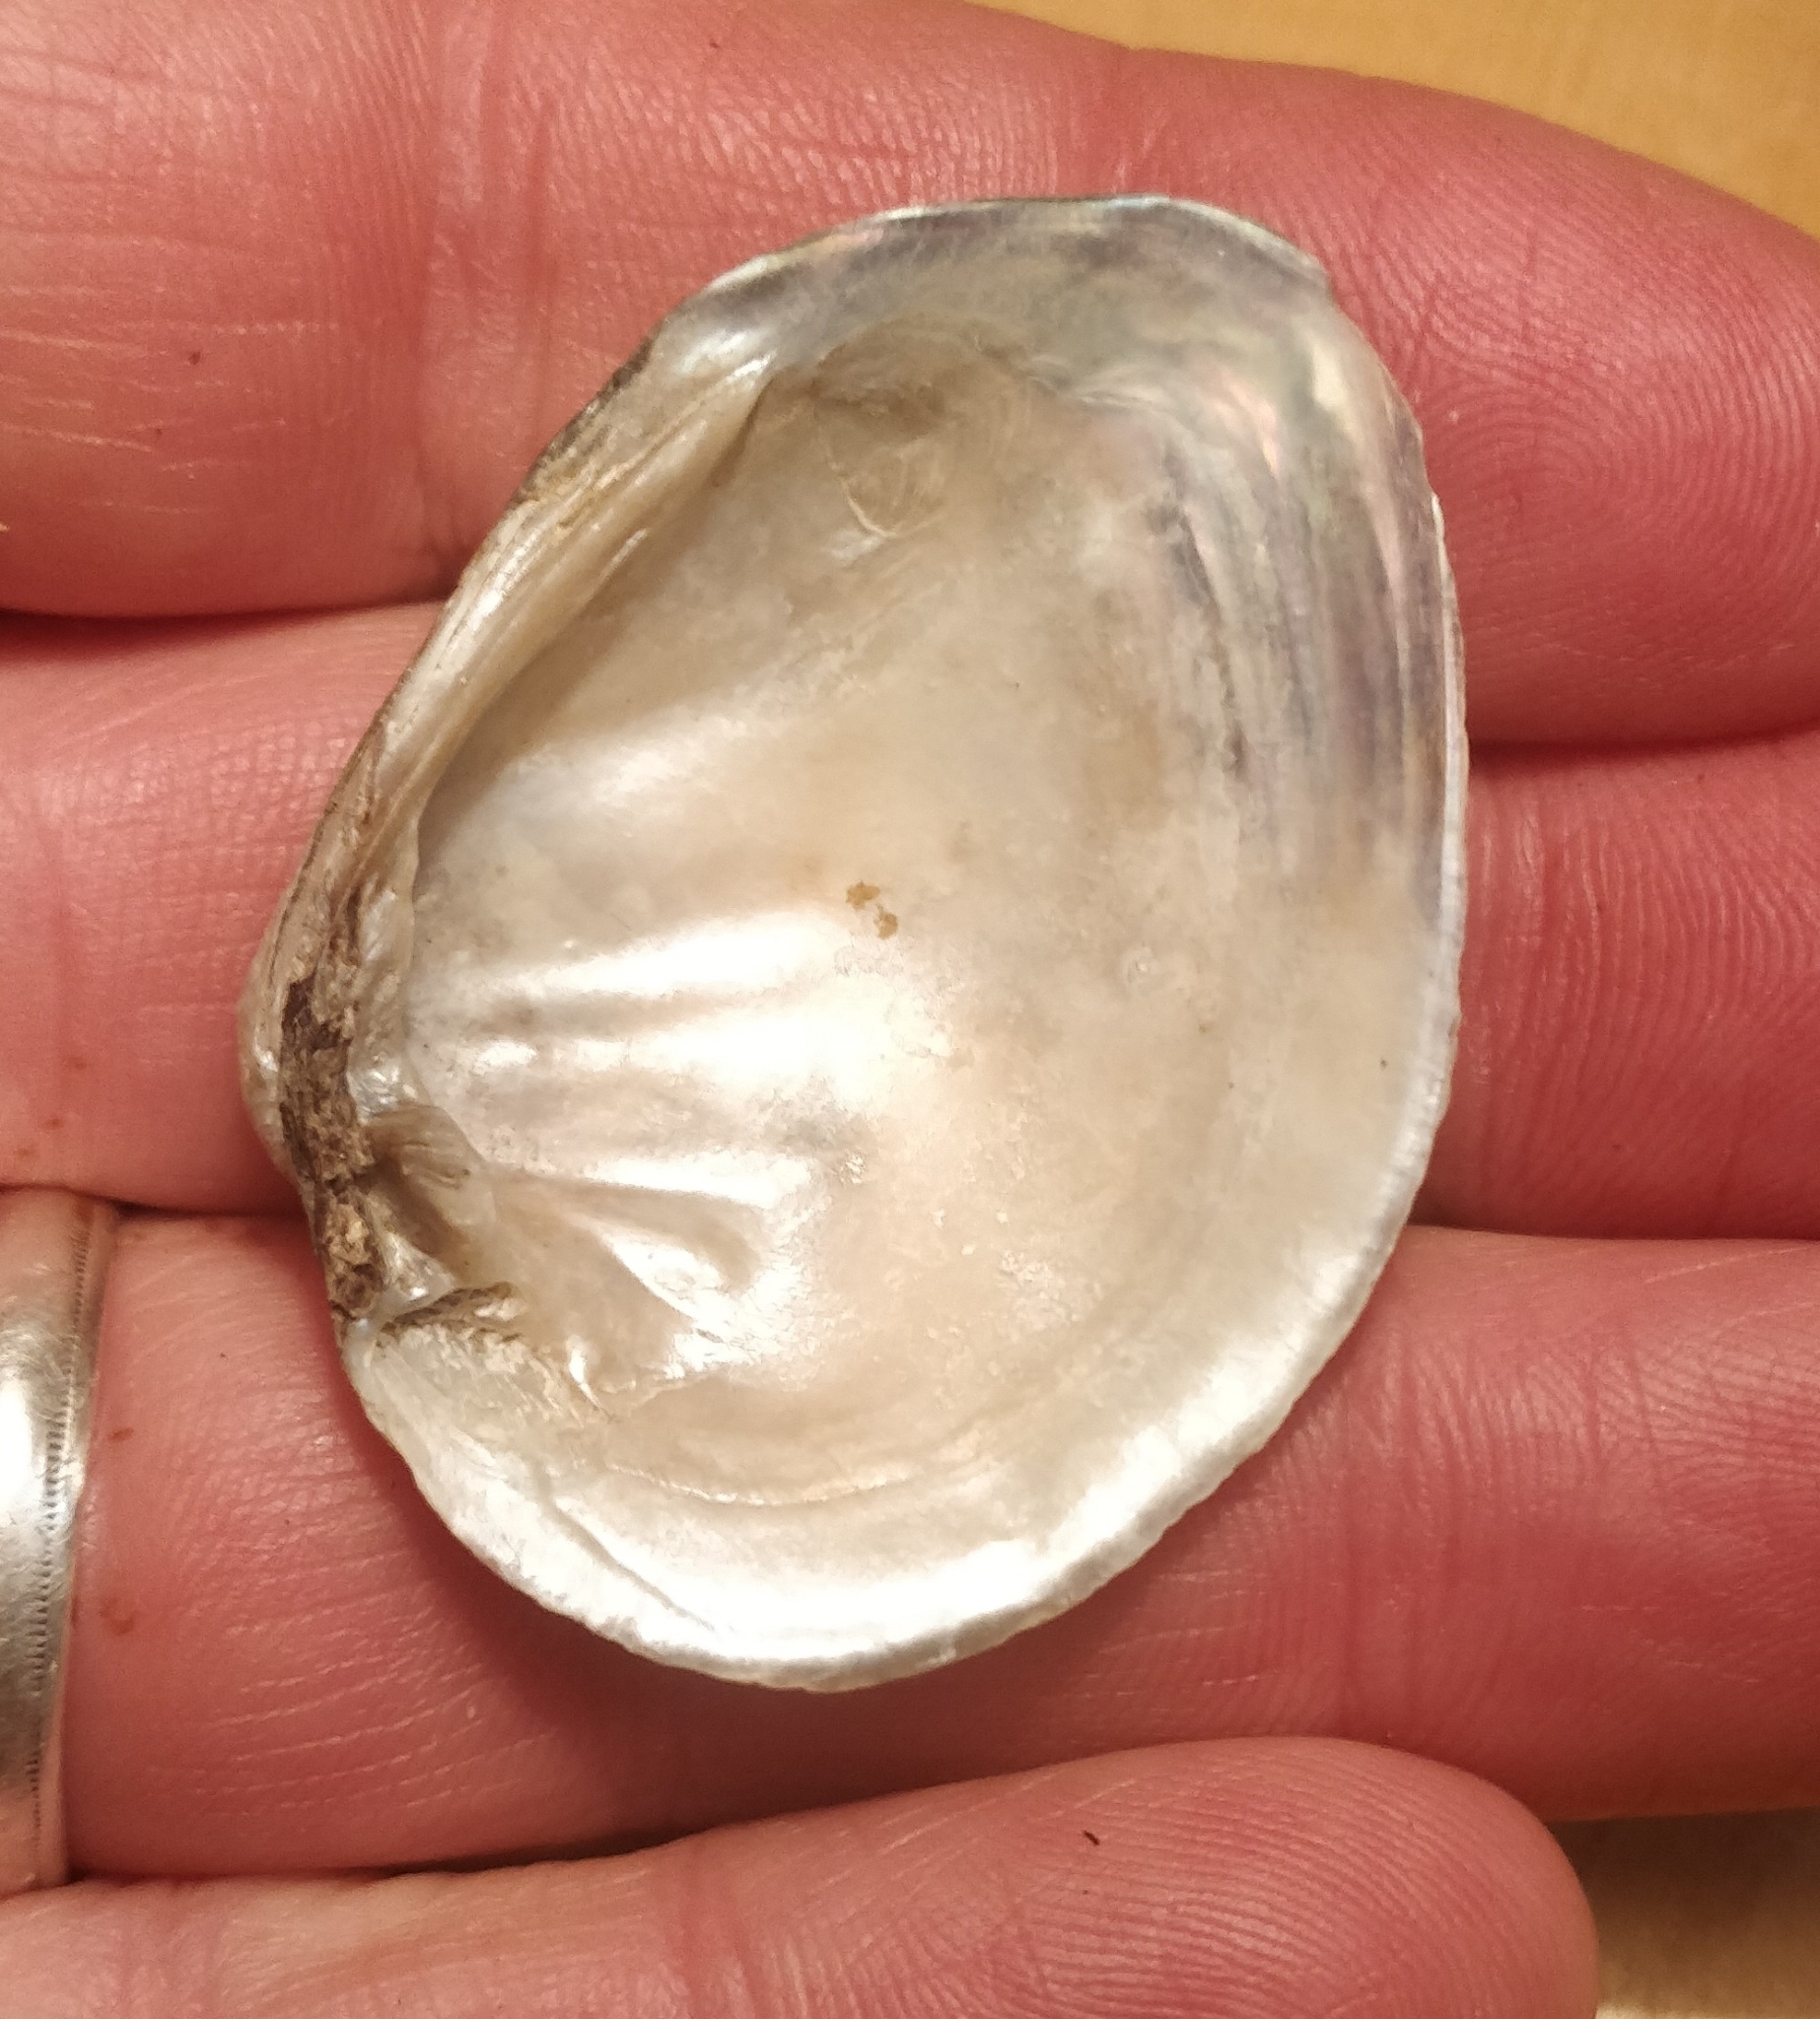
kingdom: Animalia
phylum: Mollusca
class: Bivalvia
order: Unionida
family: Unionidae
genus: Fusconaia
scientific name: Fusconaia flava
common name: Wabash pigtoe
